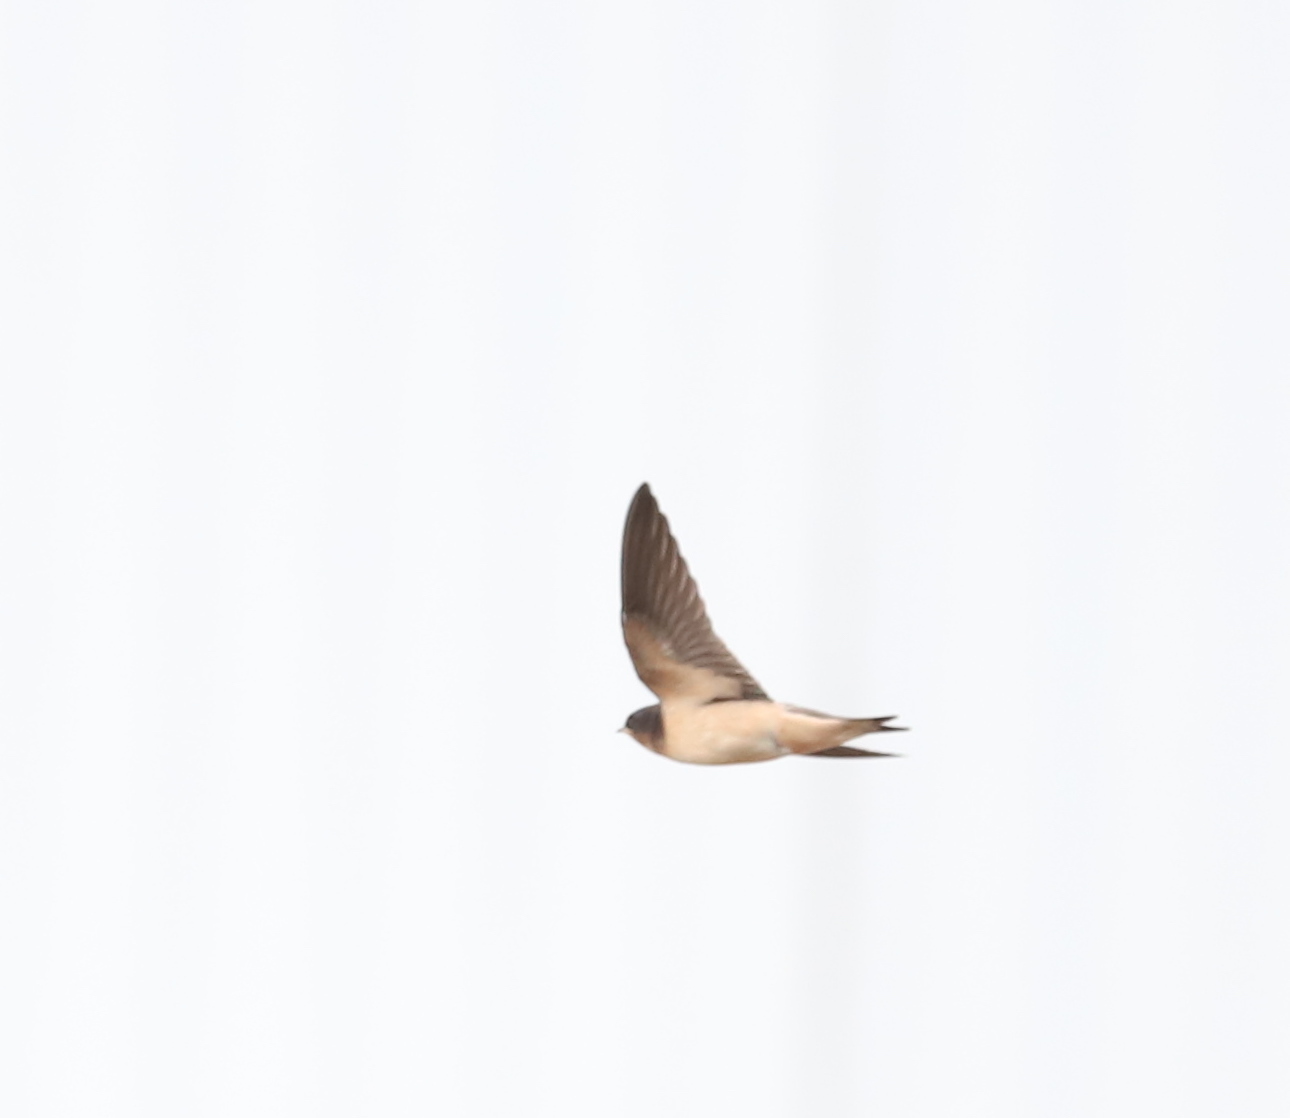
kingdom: Animalia
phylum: Chordata
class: Aves
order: Passeriformes
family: Hirundinidae
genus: Hirundo
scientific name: Hirundo rustica
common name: Barn swallow
